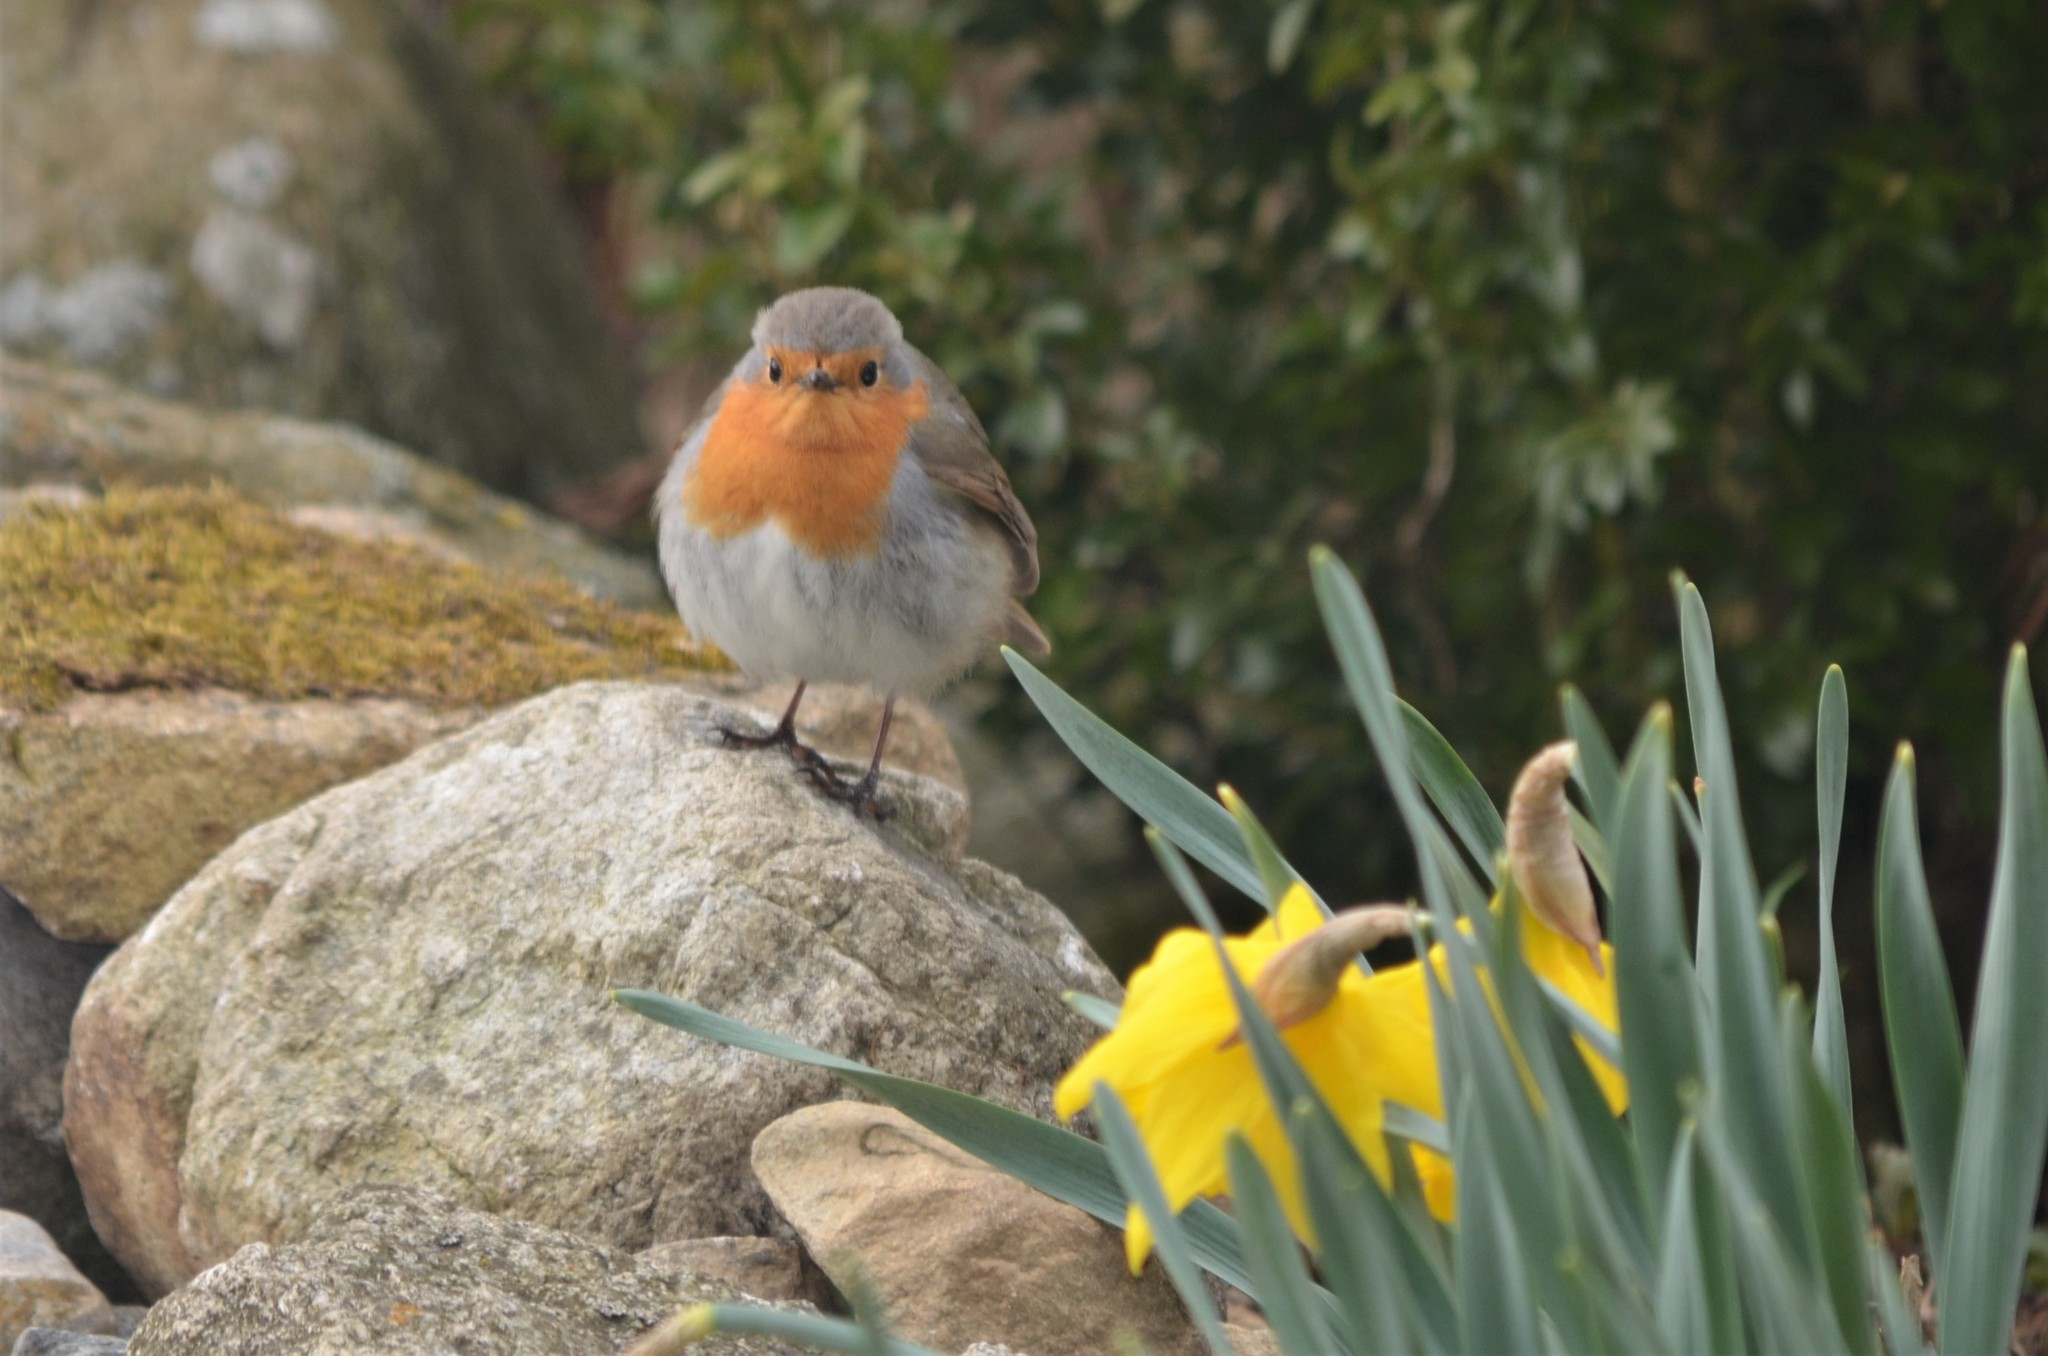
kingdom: Animalia
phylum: Chordata
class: Aves
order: Passeriformes
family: Muscicapidae
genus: Erithacus
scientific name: Erithacus rubecula
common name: European robin
